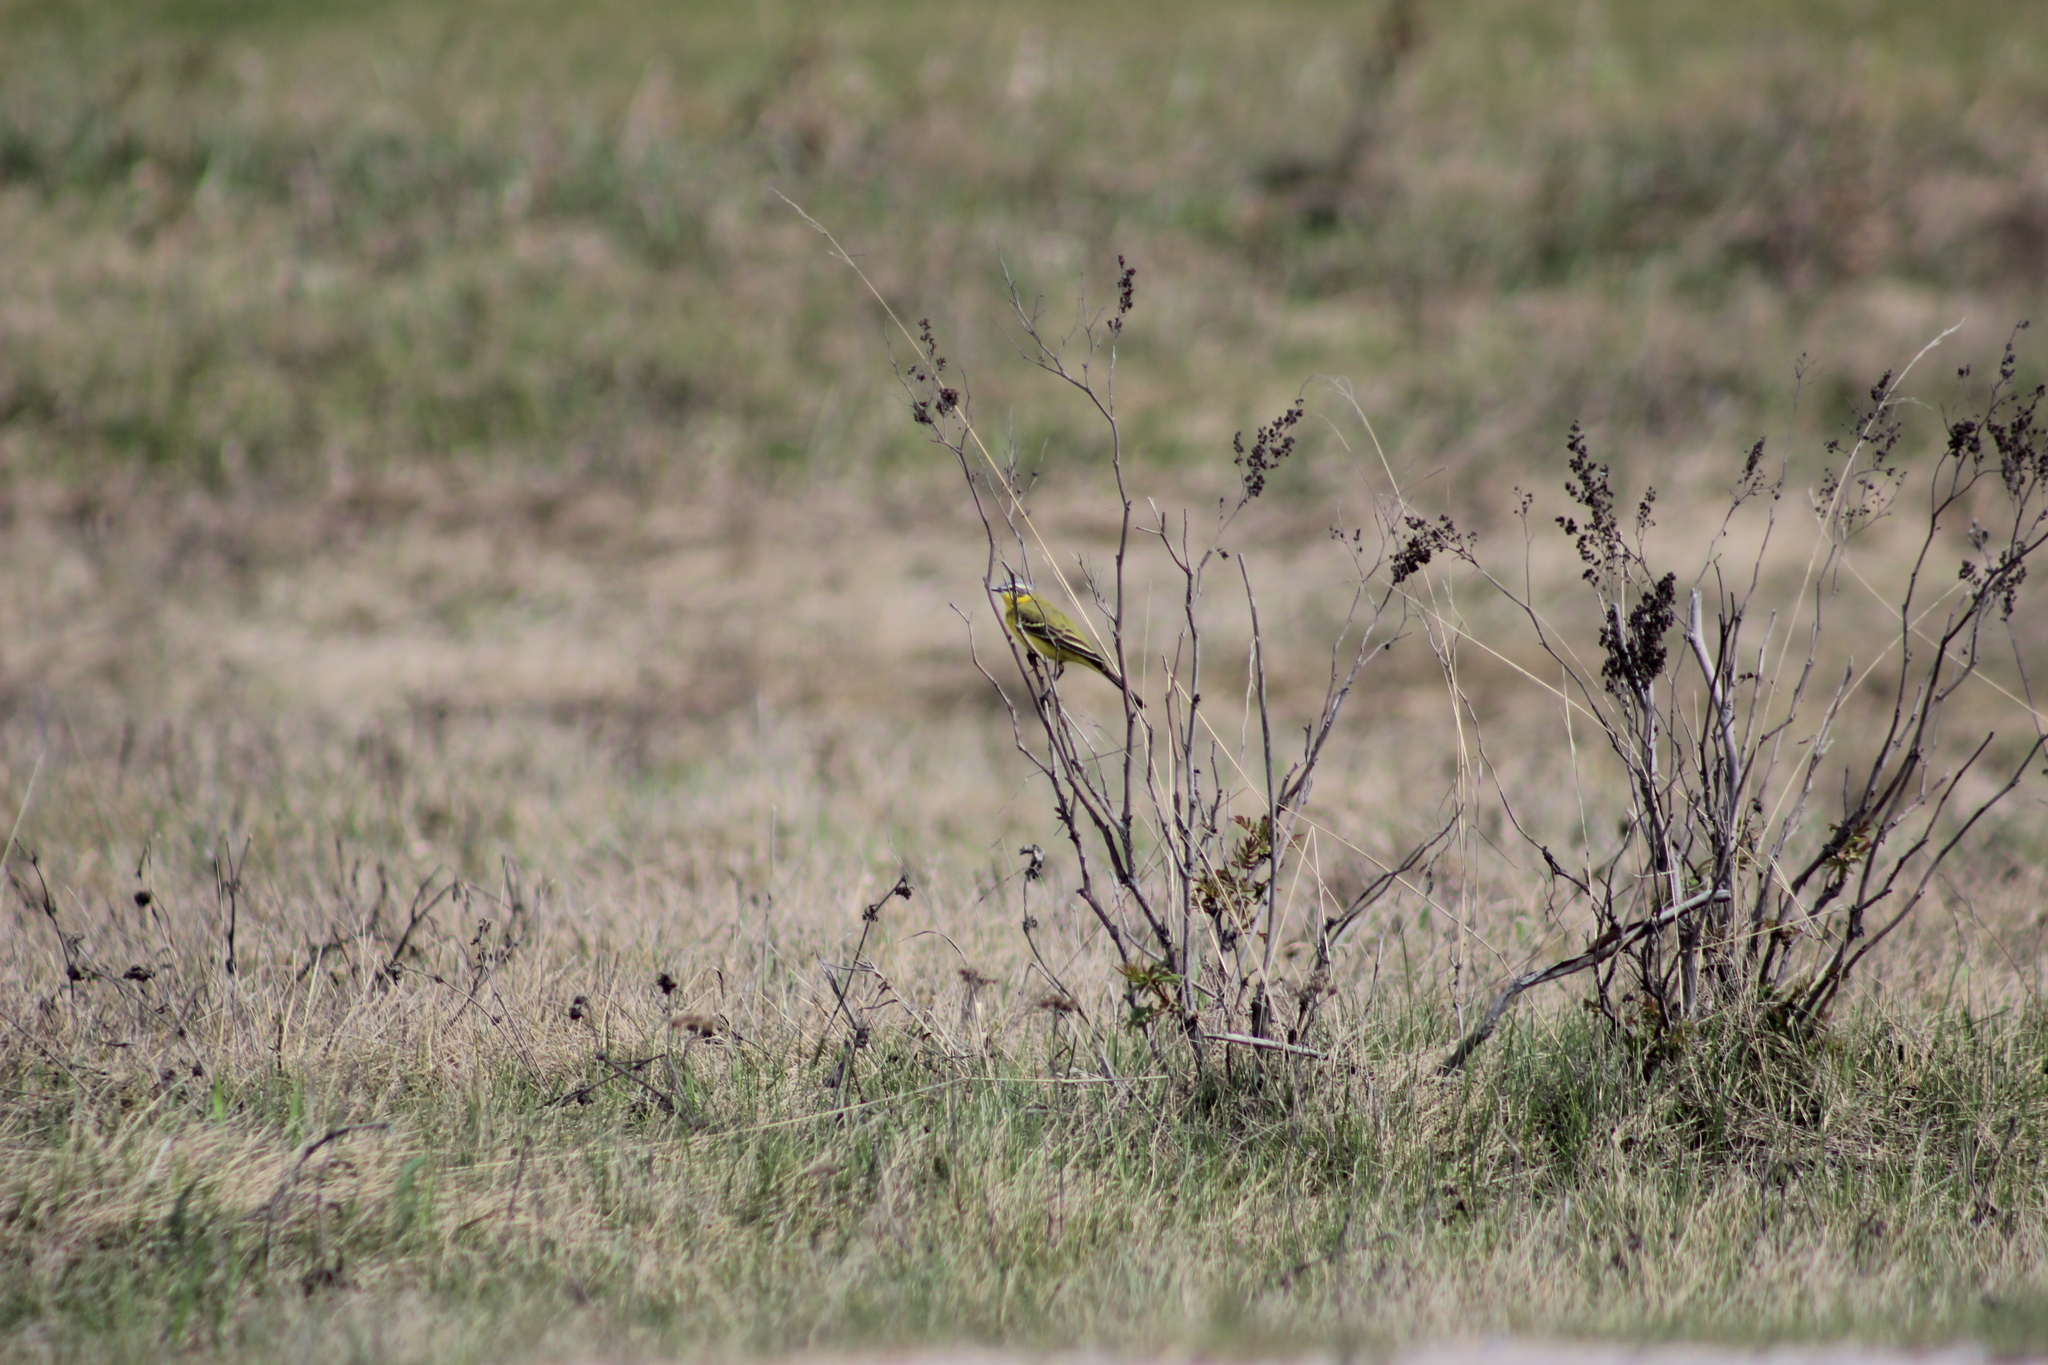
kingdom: Animalia
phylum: Chordata
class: Aves
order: Passeriformes
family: Motacillidae
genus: Motacilla
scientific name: Motacilla flava
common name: Western yellow wagtail
